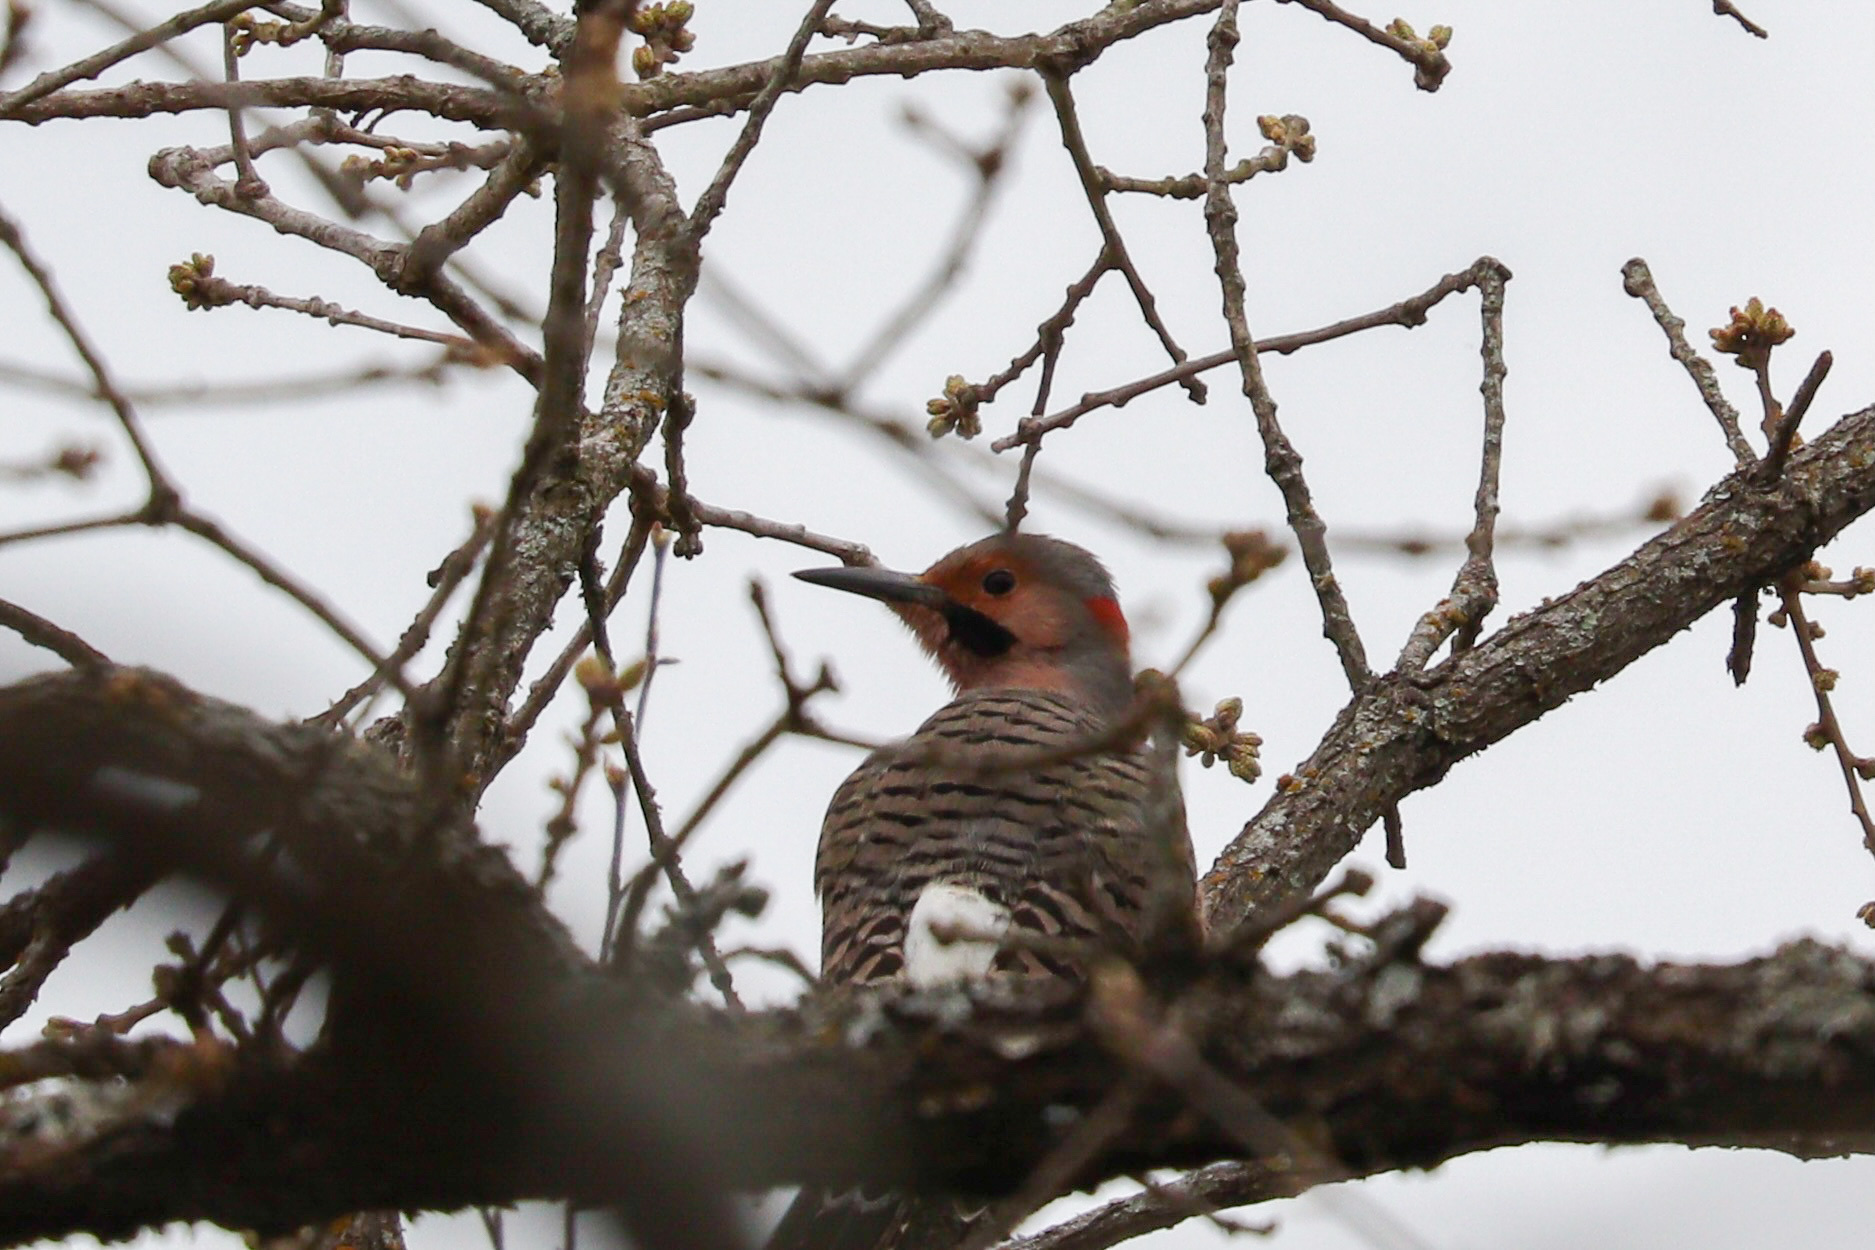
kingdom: Animalia
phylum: Chordata
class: Aves
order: Piciformes
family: Picidae
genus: Colaptes
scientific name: Colaptes auratus
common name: Northern flicker
